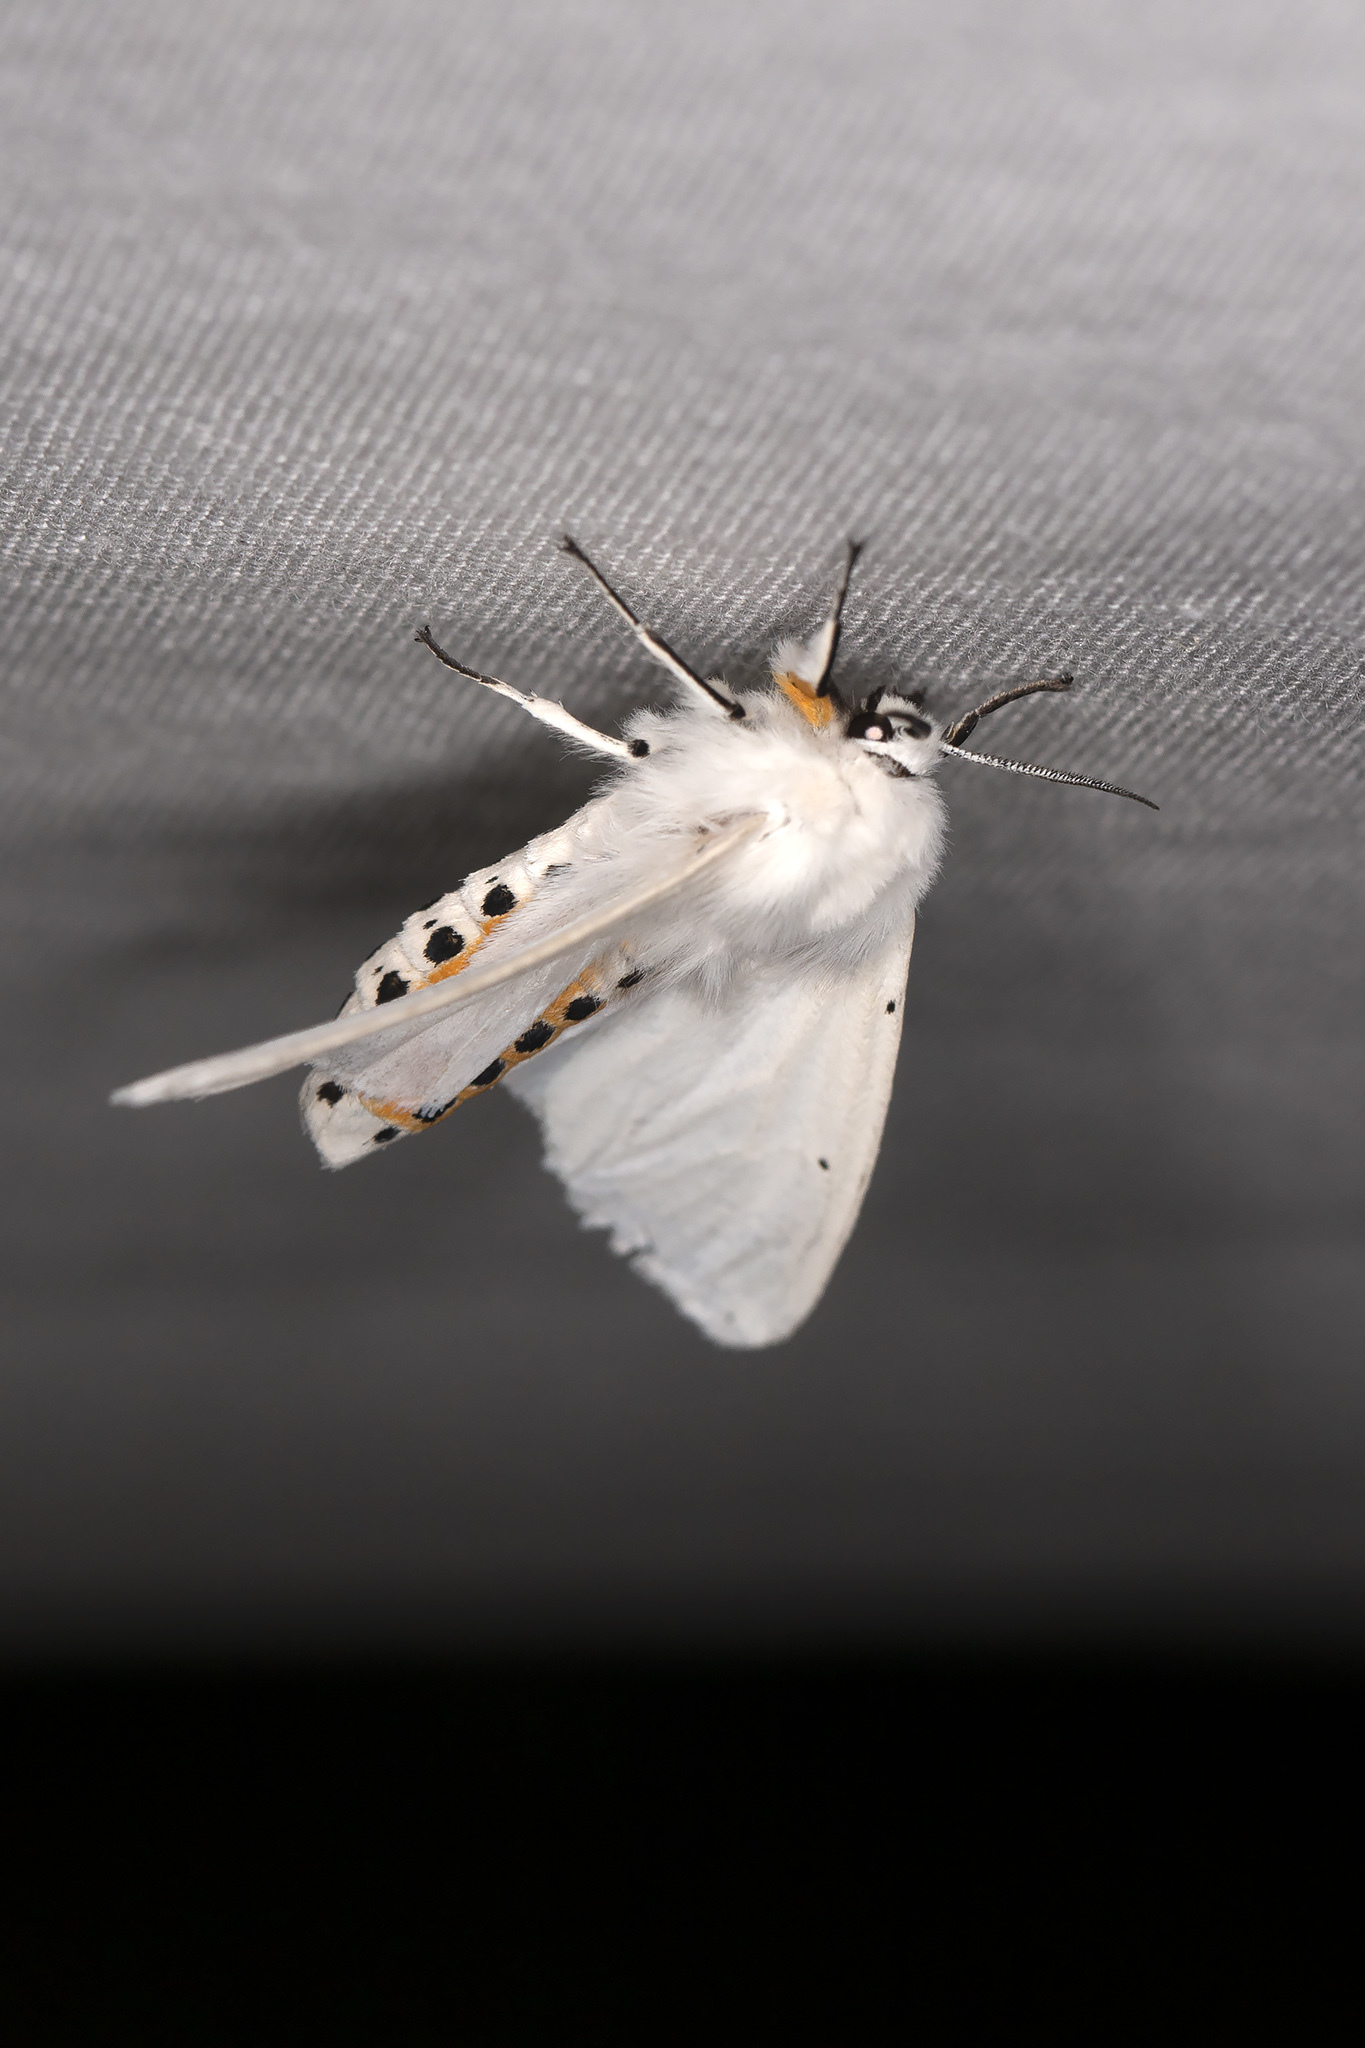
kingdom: Animalia
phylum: Arthropoda
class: Insecta
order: Lepidoptera
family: Erebidae
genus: Spilosoma
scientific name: Spilosoma urticae
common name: Water ermine
